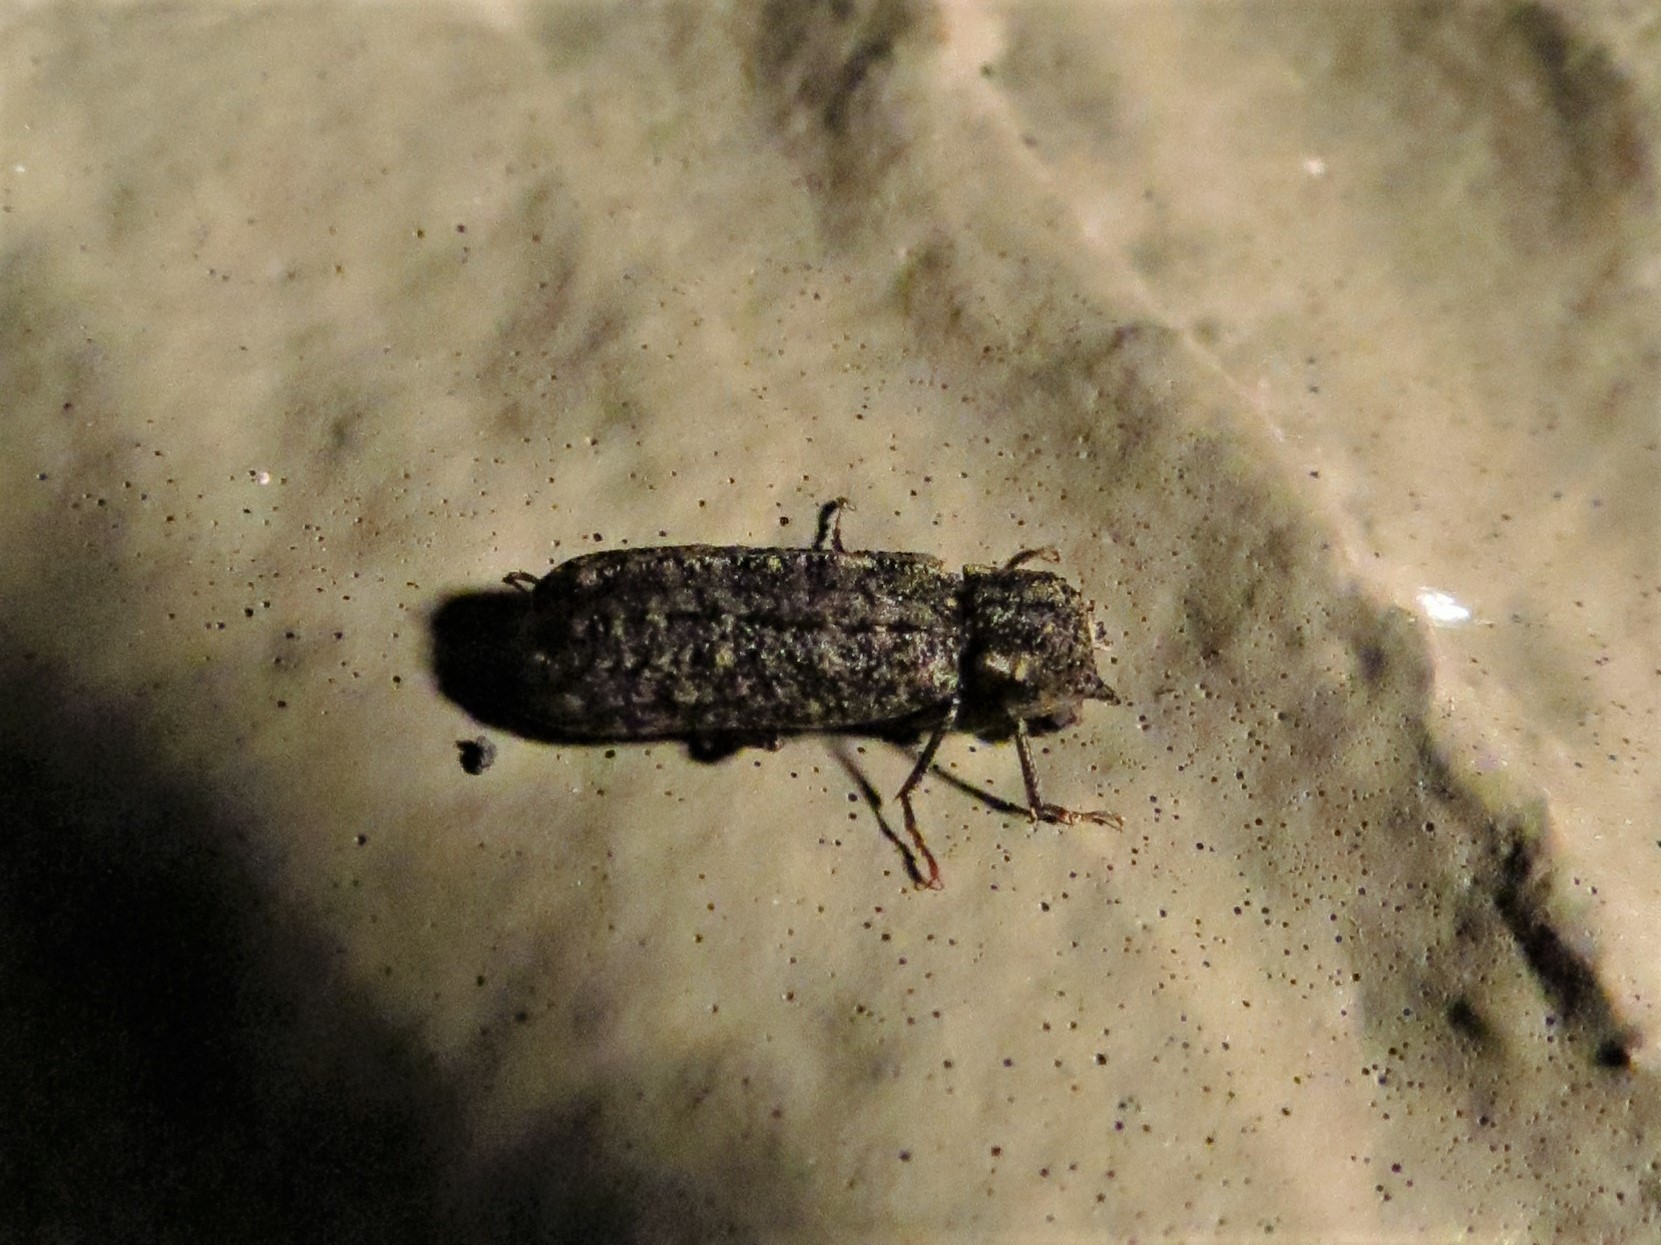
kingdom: Animalia
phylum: Arthropoda
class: Insecta
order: Coleoptera
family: Bostrichidae
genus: Lichenophanes
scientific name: Lichenophanes bicornis
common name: Two-horned powder-post beetle
